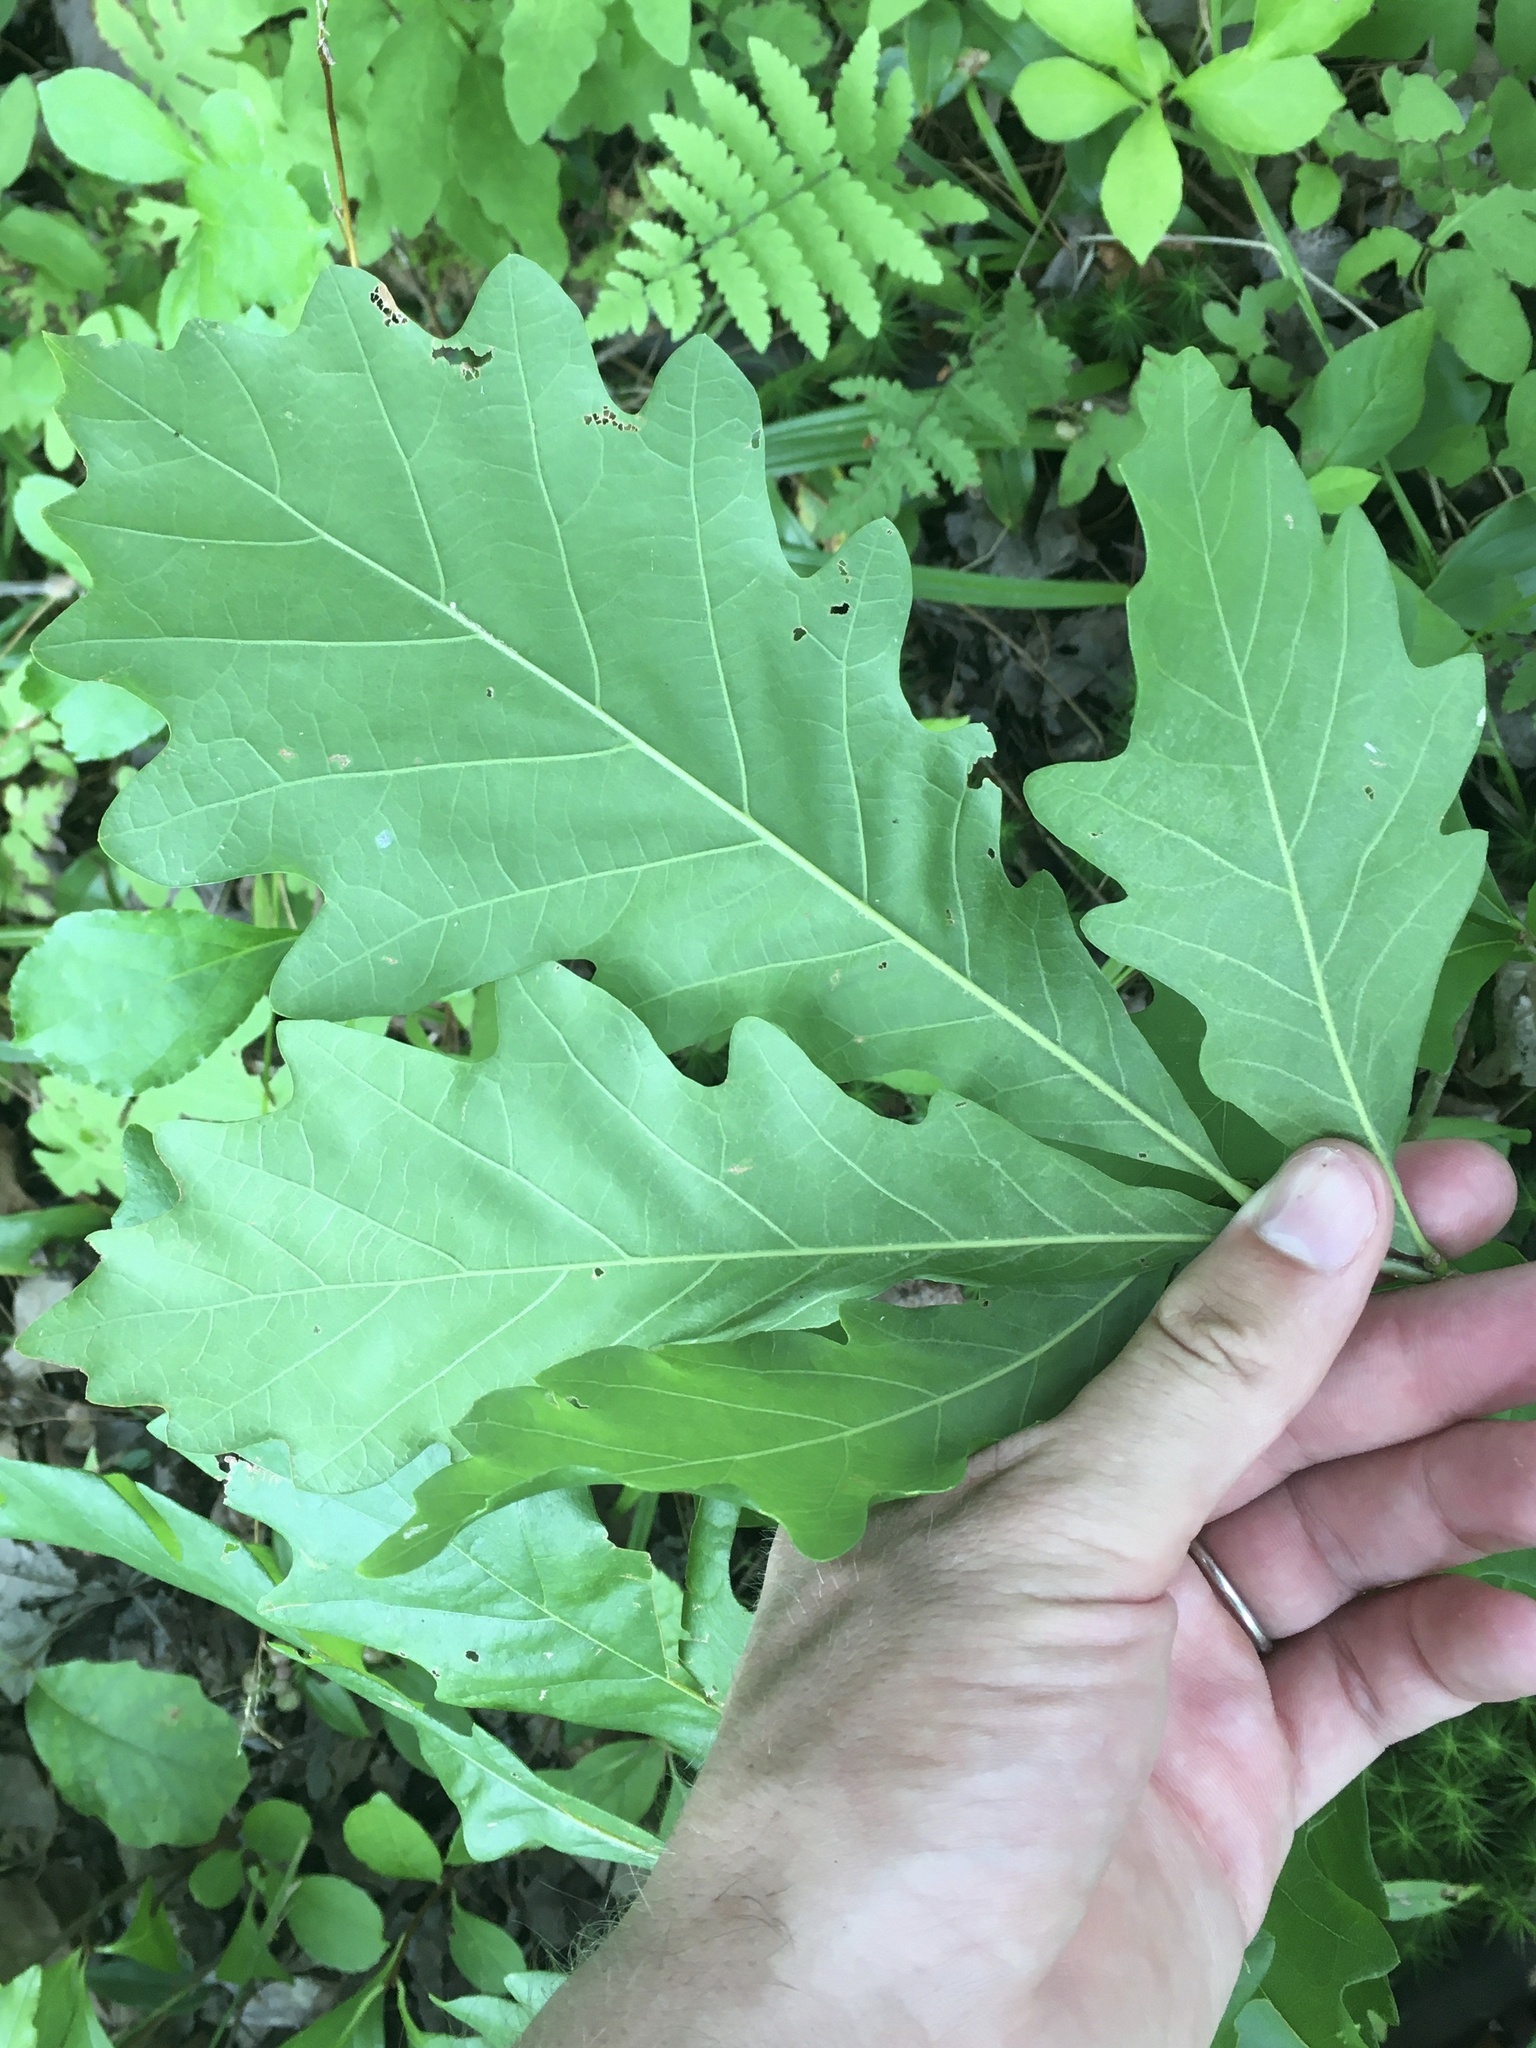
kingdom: Plantae
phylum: Tracheophyta
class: Magnoliopsida
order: Fagales
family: Fagaceae
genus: Quercus
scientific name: Quercus bicolor
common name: Swamp white oak
